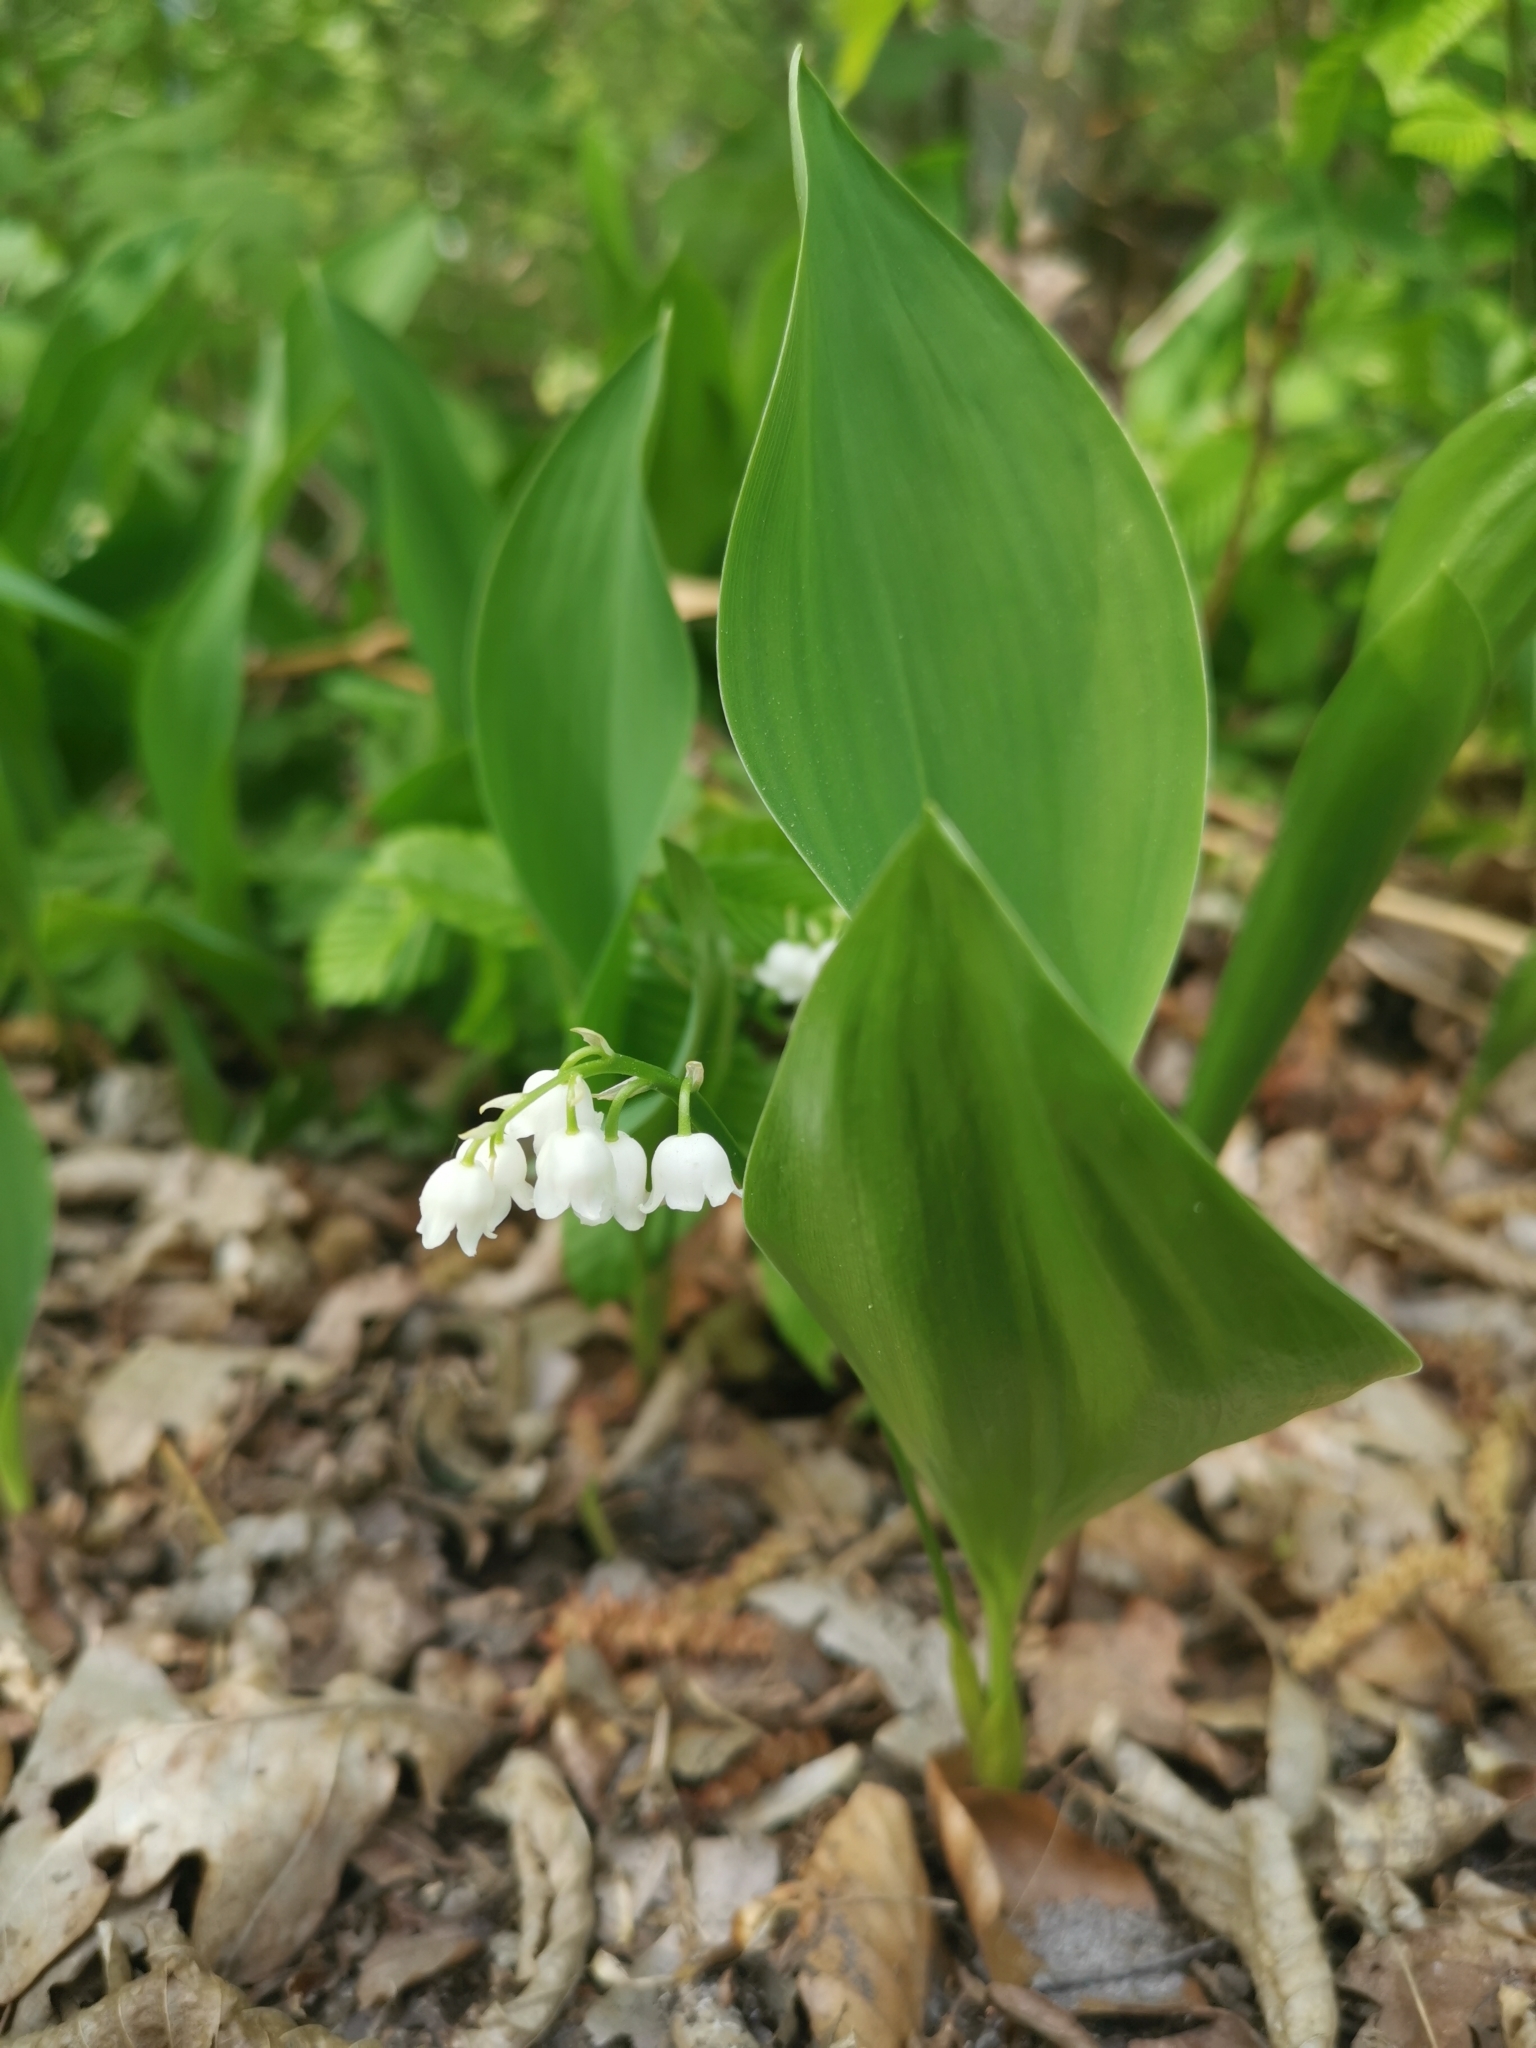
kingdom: Plantae
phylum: Tracheophyta
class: Liliopsida
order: Asparagales
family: Asparagaceae
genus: Convallaria
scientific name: Convallaria majalis
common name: Lily-of-the-valley
